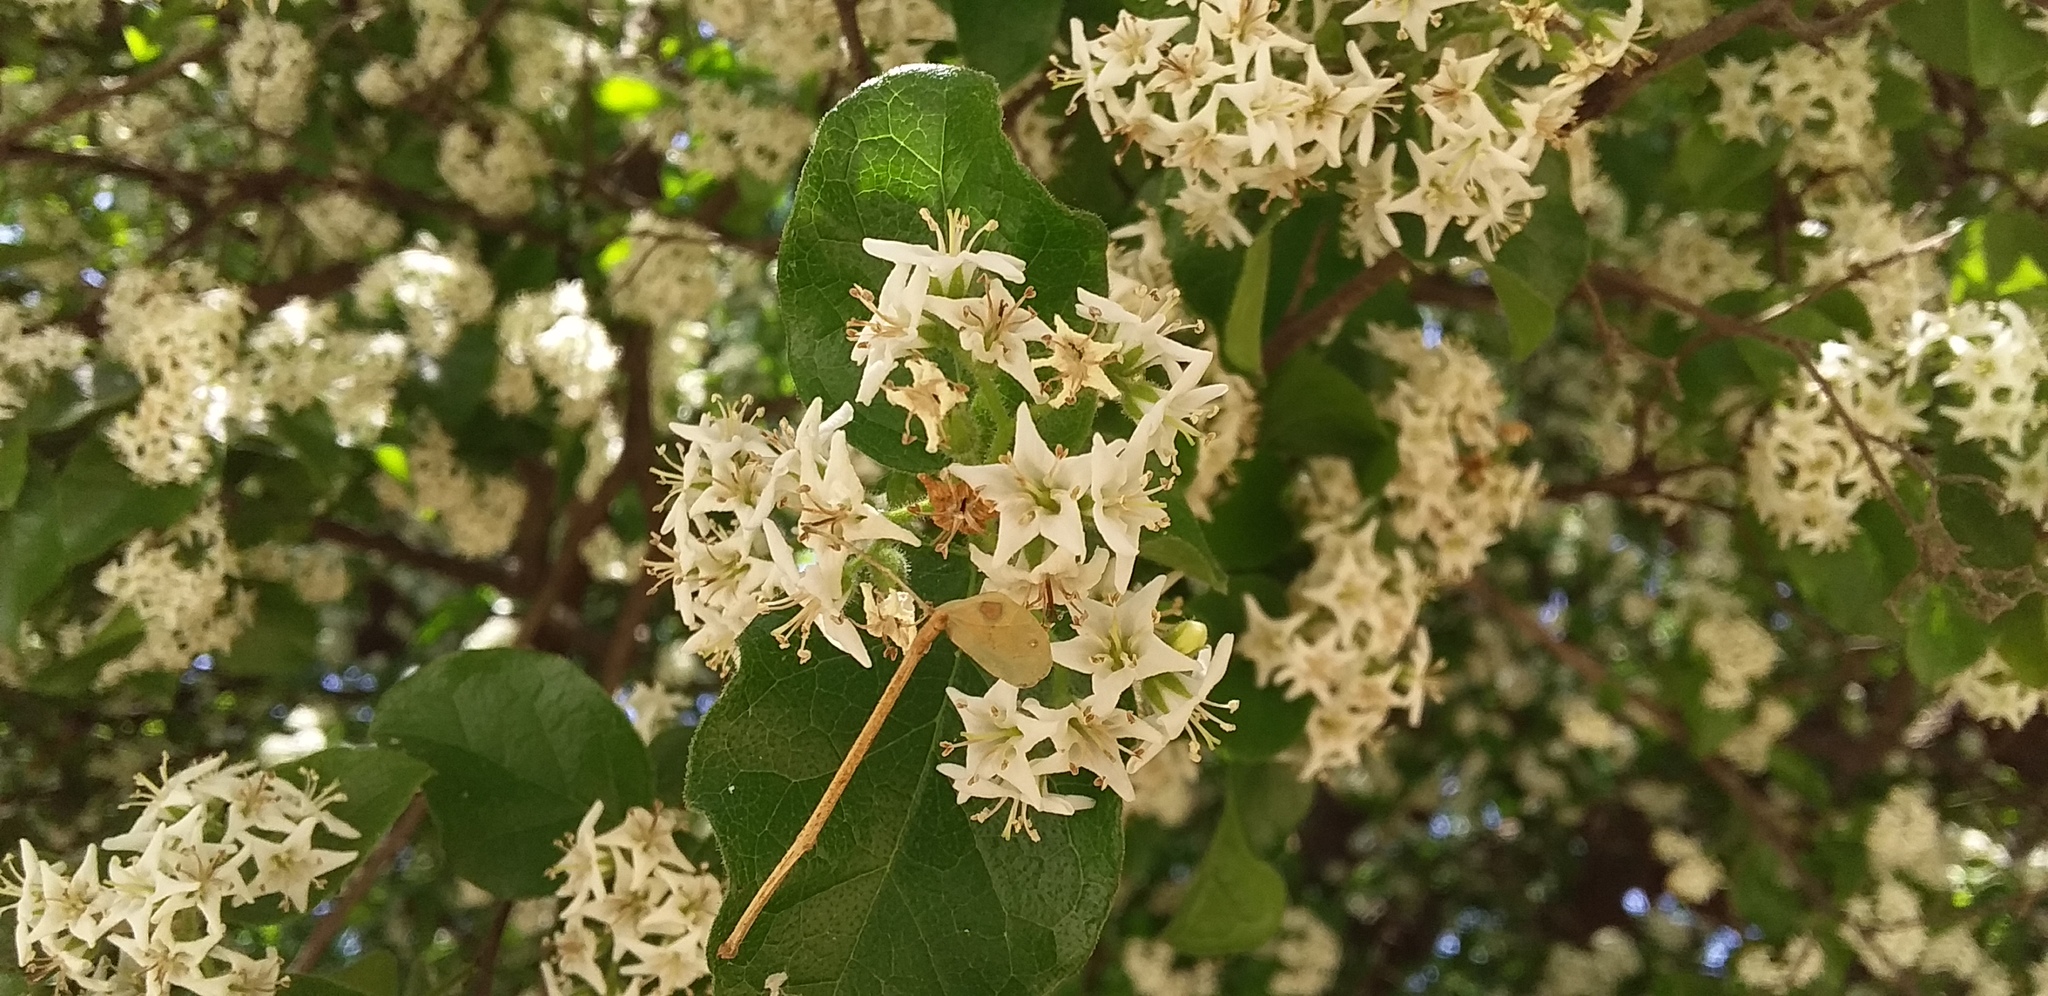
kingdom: Plantae
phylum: Tracheophyta
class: Magnoliopsida
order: Boraginales
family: Ehretiaceae
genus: Ehretia
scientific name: Ehretia anacua
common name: Sugarberry
